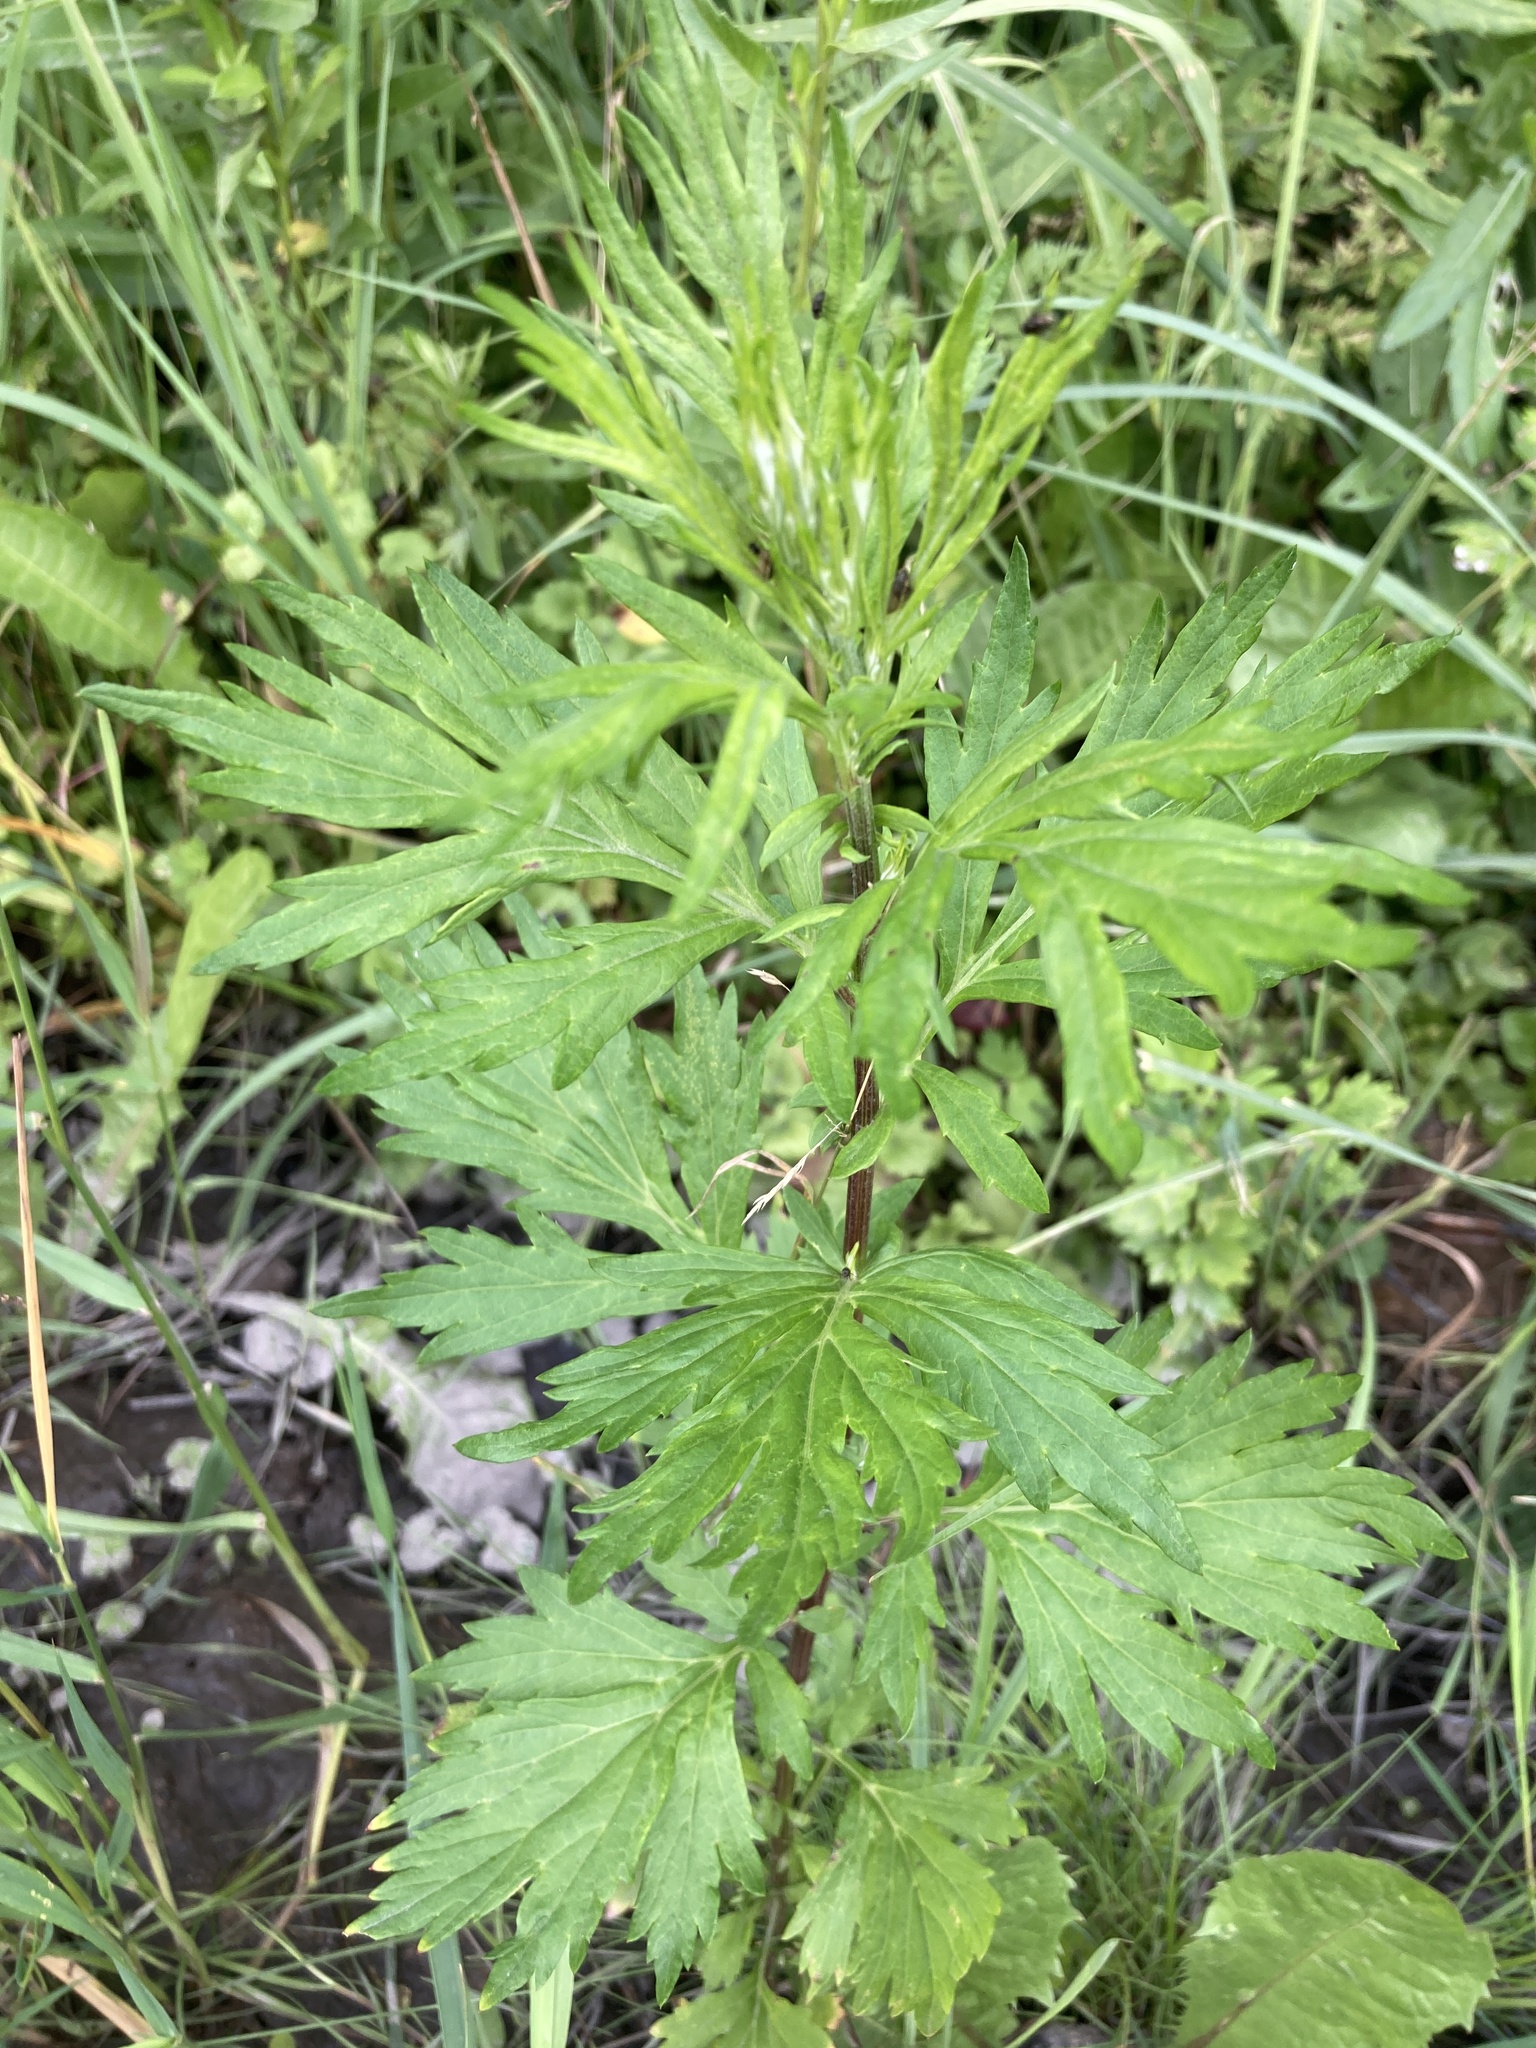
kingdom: Plantae
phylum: Tracheophyta
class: Magnoliopsida
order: Asterales
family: Asteraceae
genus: Artemisia
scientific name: Artemisia vulgaris
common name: Mugwort
